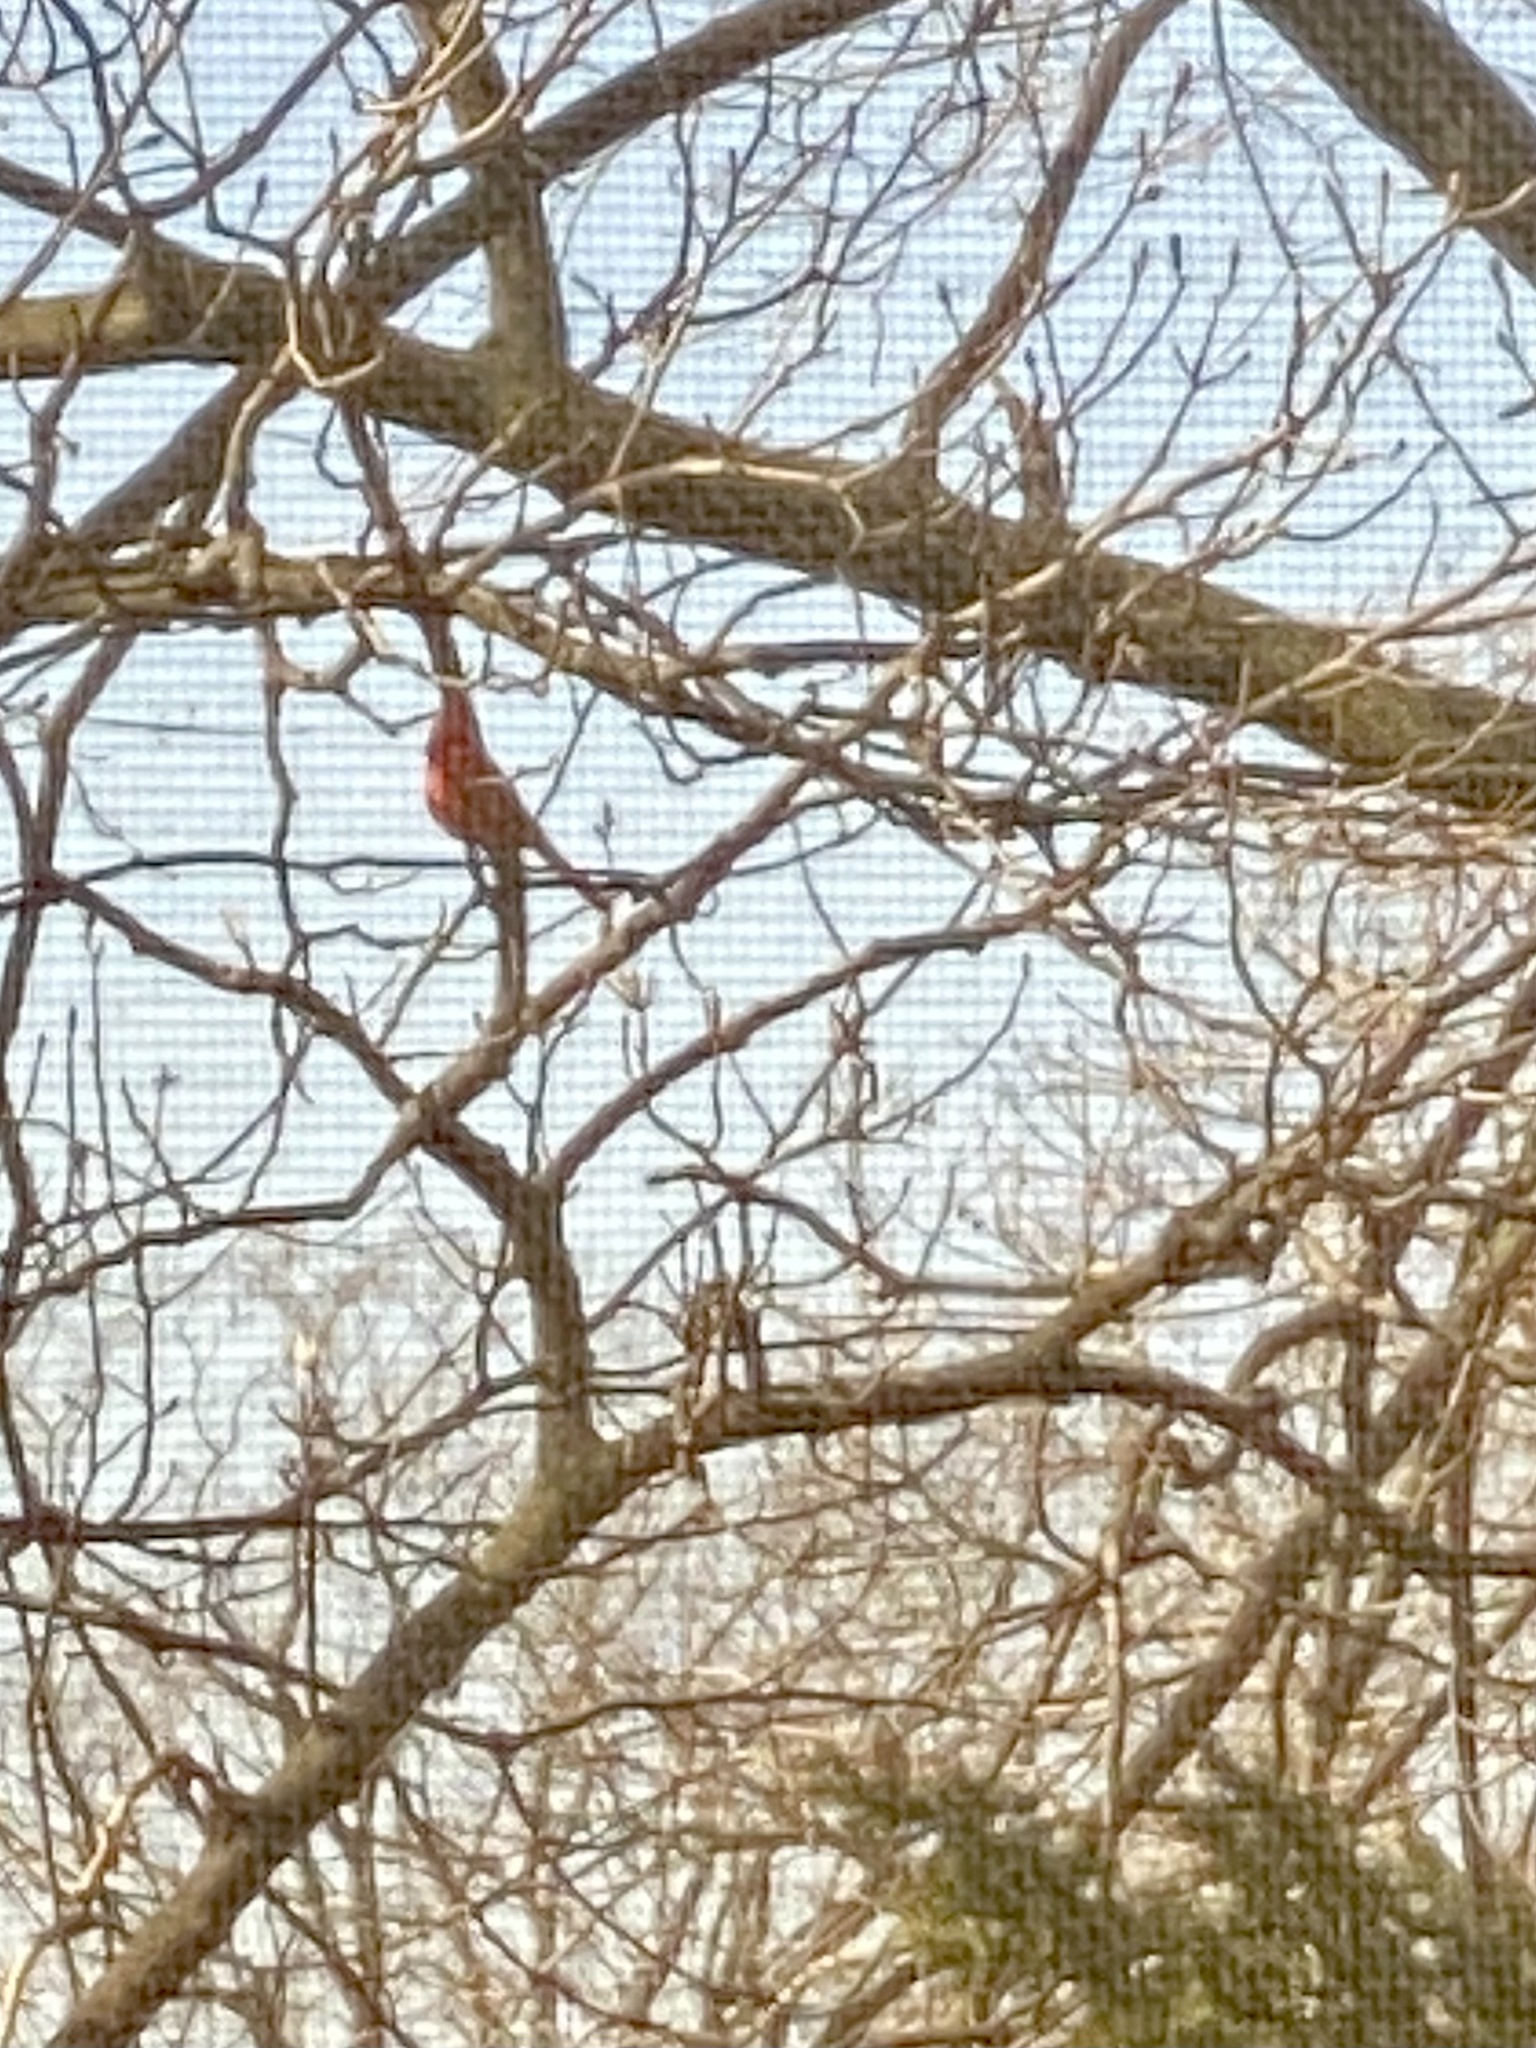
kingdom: Animalia
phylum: Chordata
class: Aves
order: Passeriformes
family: Cardinalidae
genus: Cardinalis
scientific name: Cardinalis cardinalis
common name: Northern cardinal
